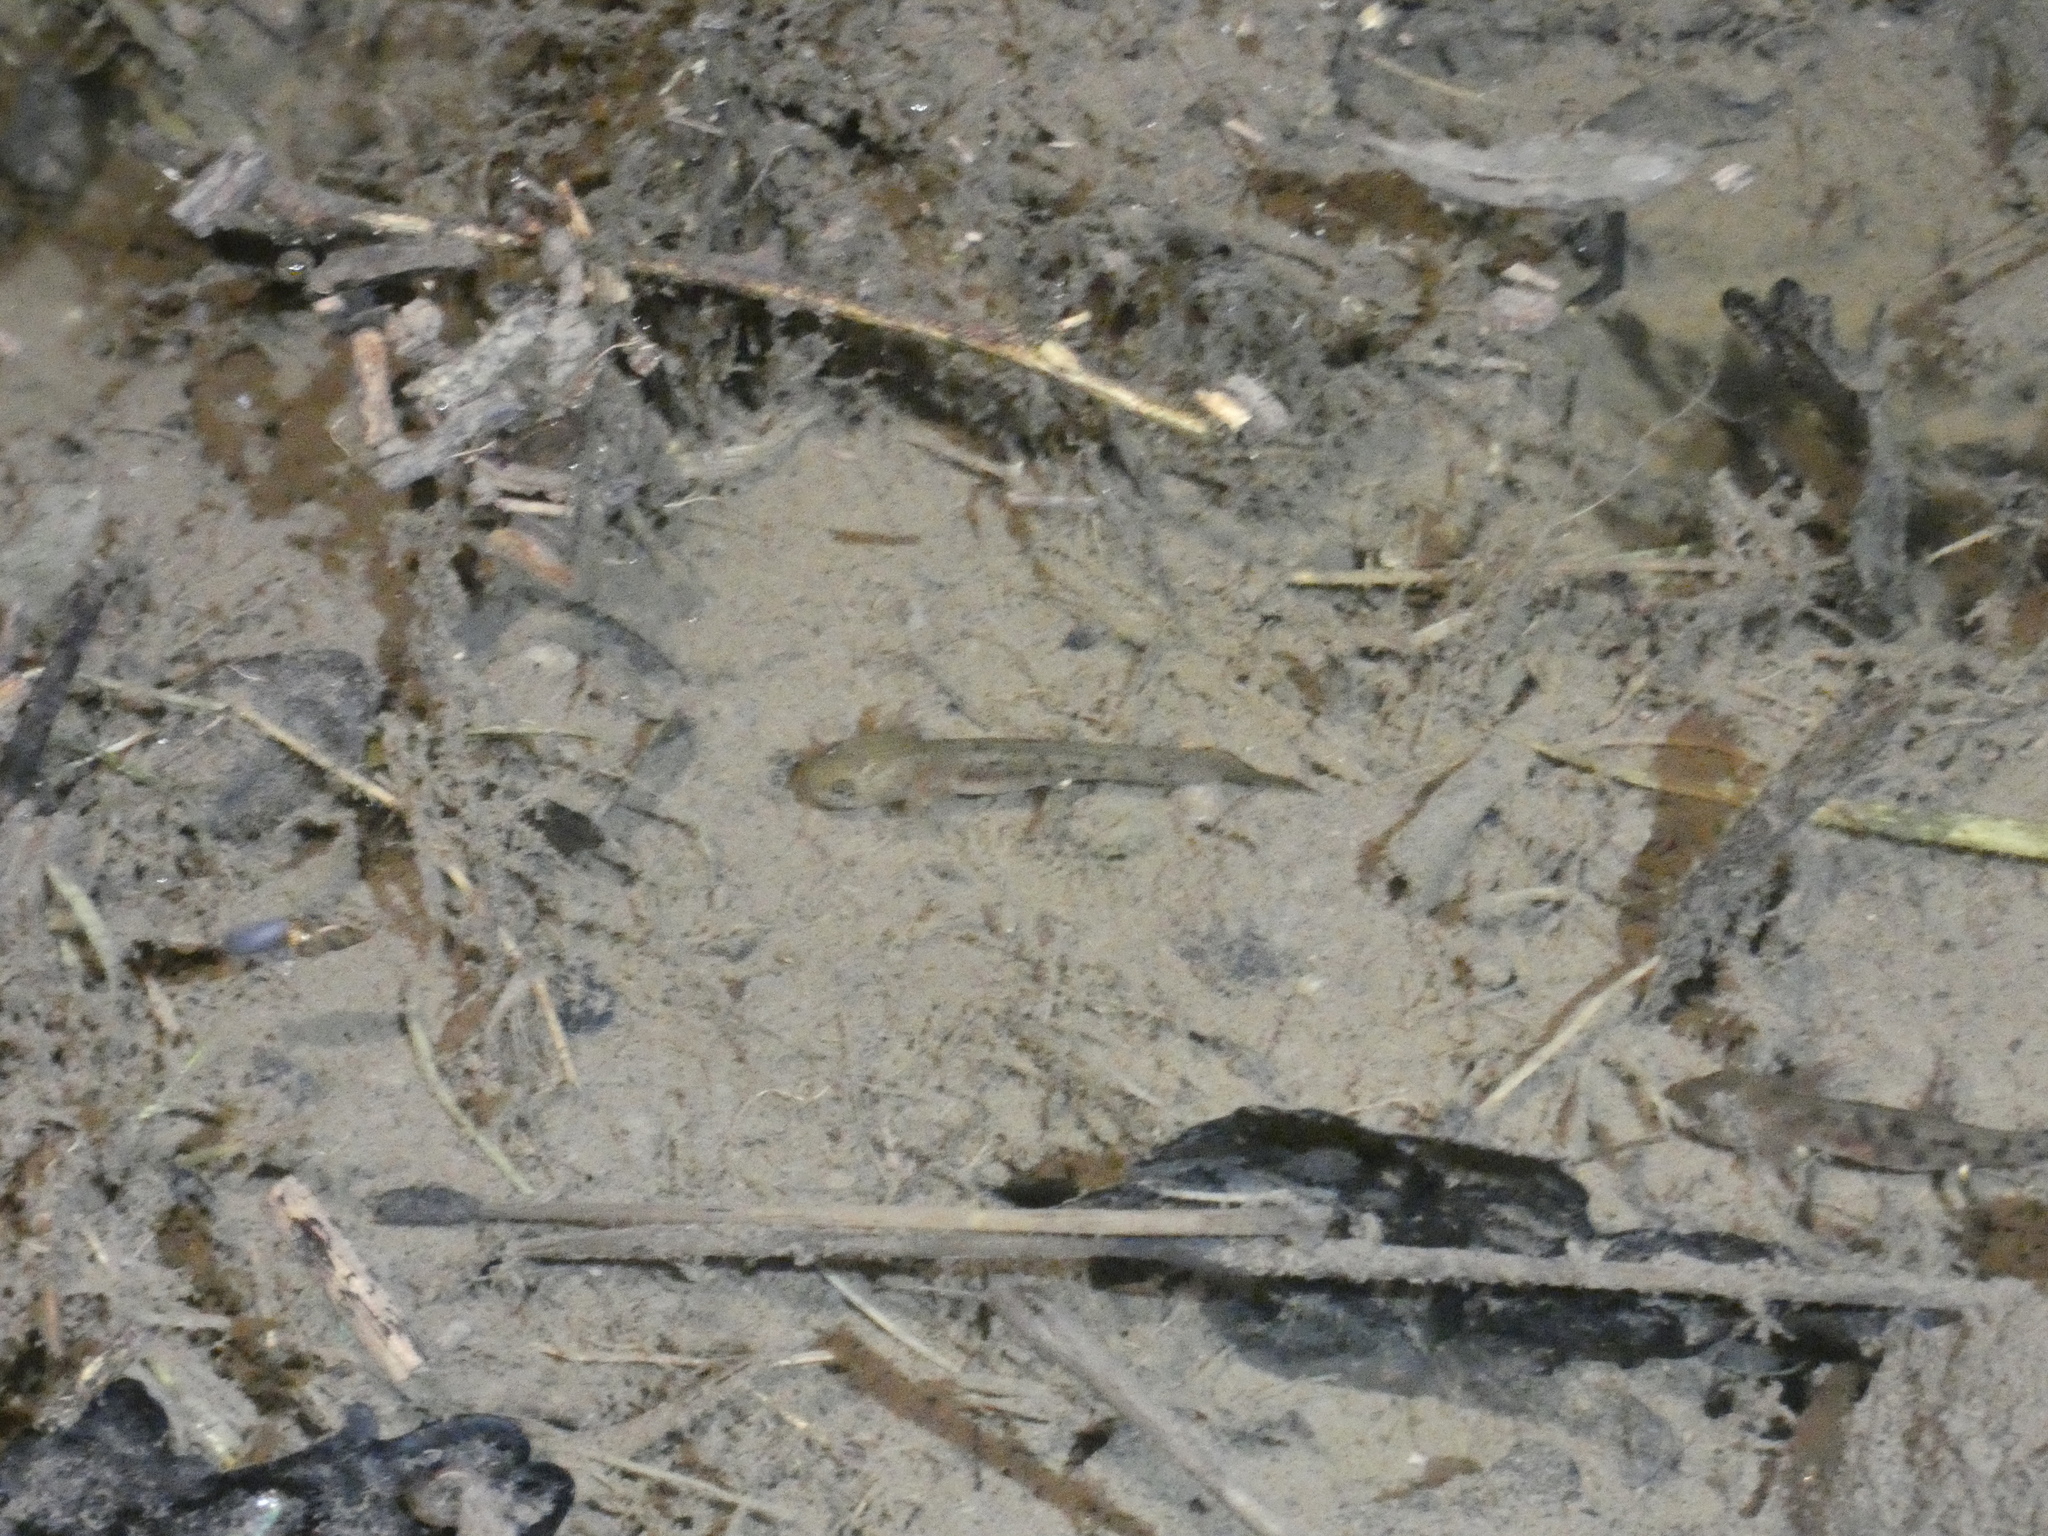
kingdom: Animalia
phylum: Chordata
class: Amphibia
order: Caudata
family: Salamandridae
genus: Salamandra
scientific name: Salamandra salamandra
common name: Fire salamander
